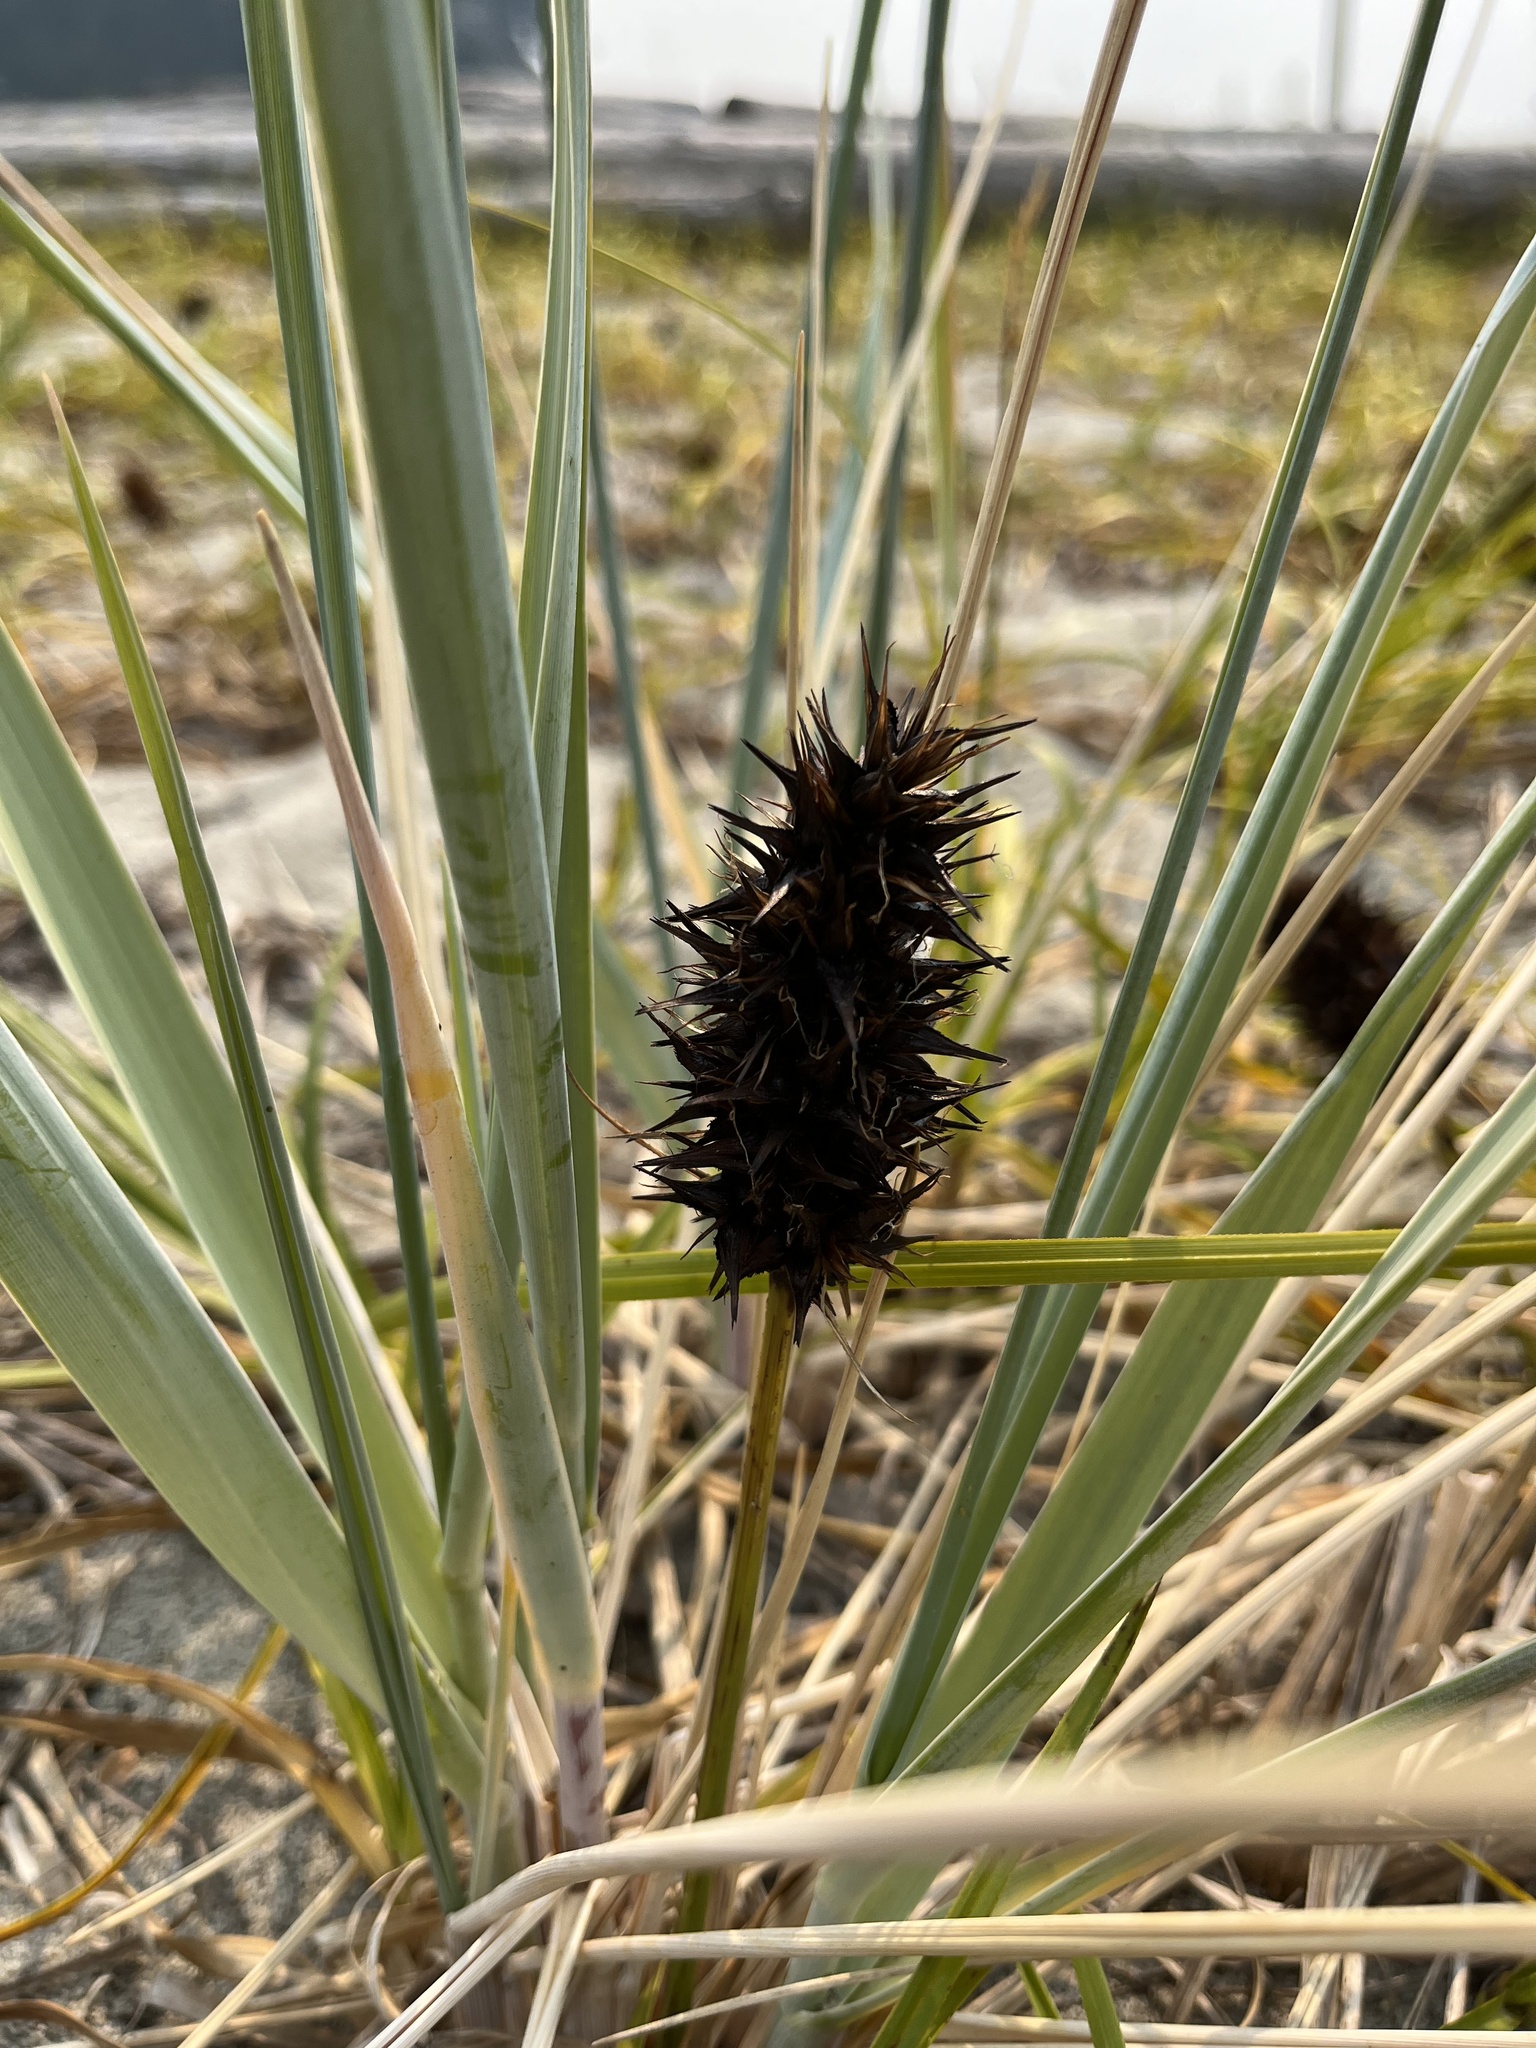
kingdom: Plantae
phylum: Tracheophyta
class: Liliopsida
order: Poales
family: Cyperaceae
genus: Carex
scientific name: Carex macrocephala
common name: Large-head sedge
